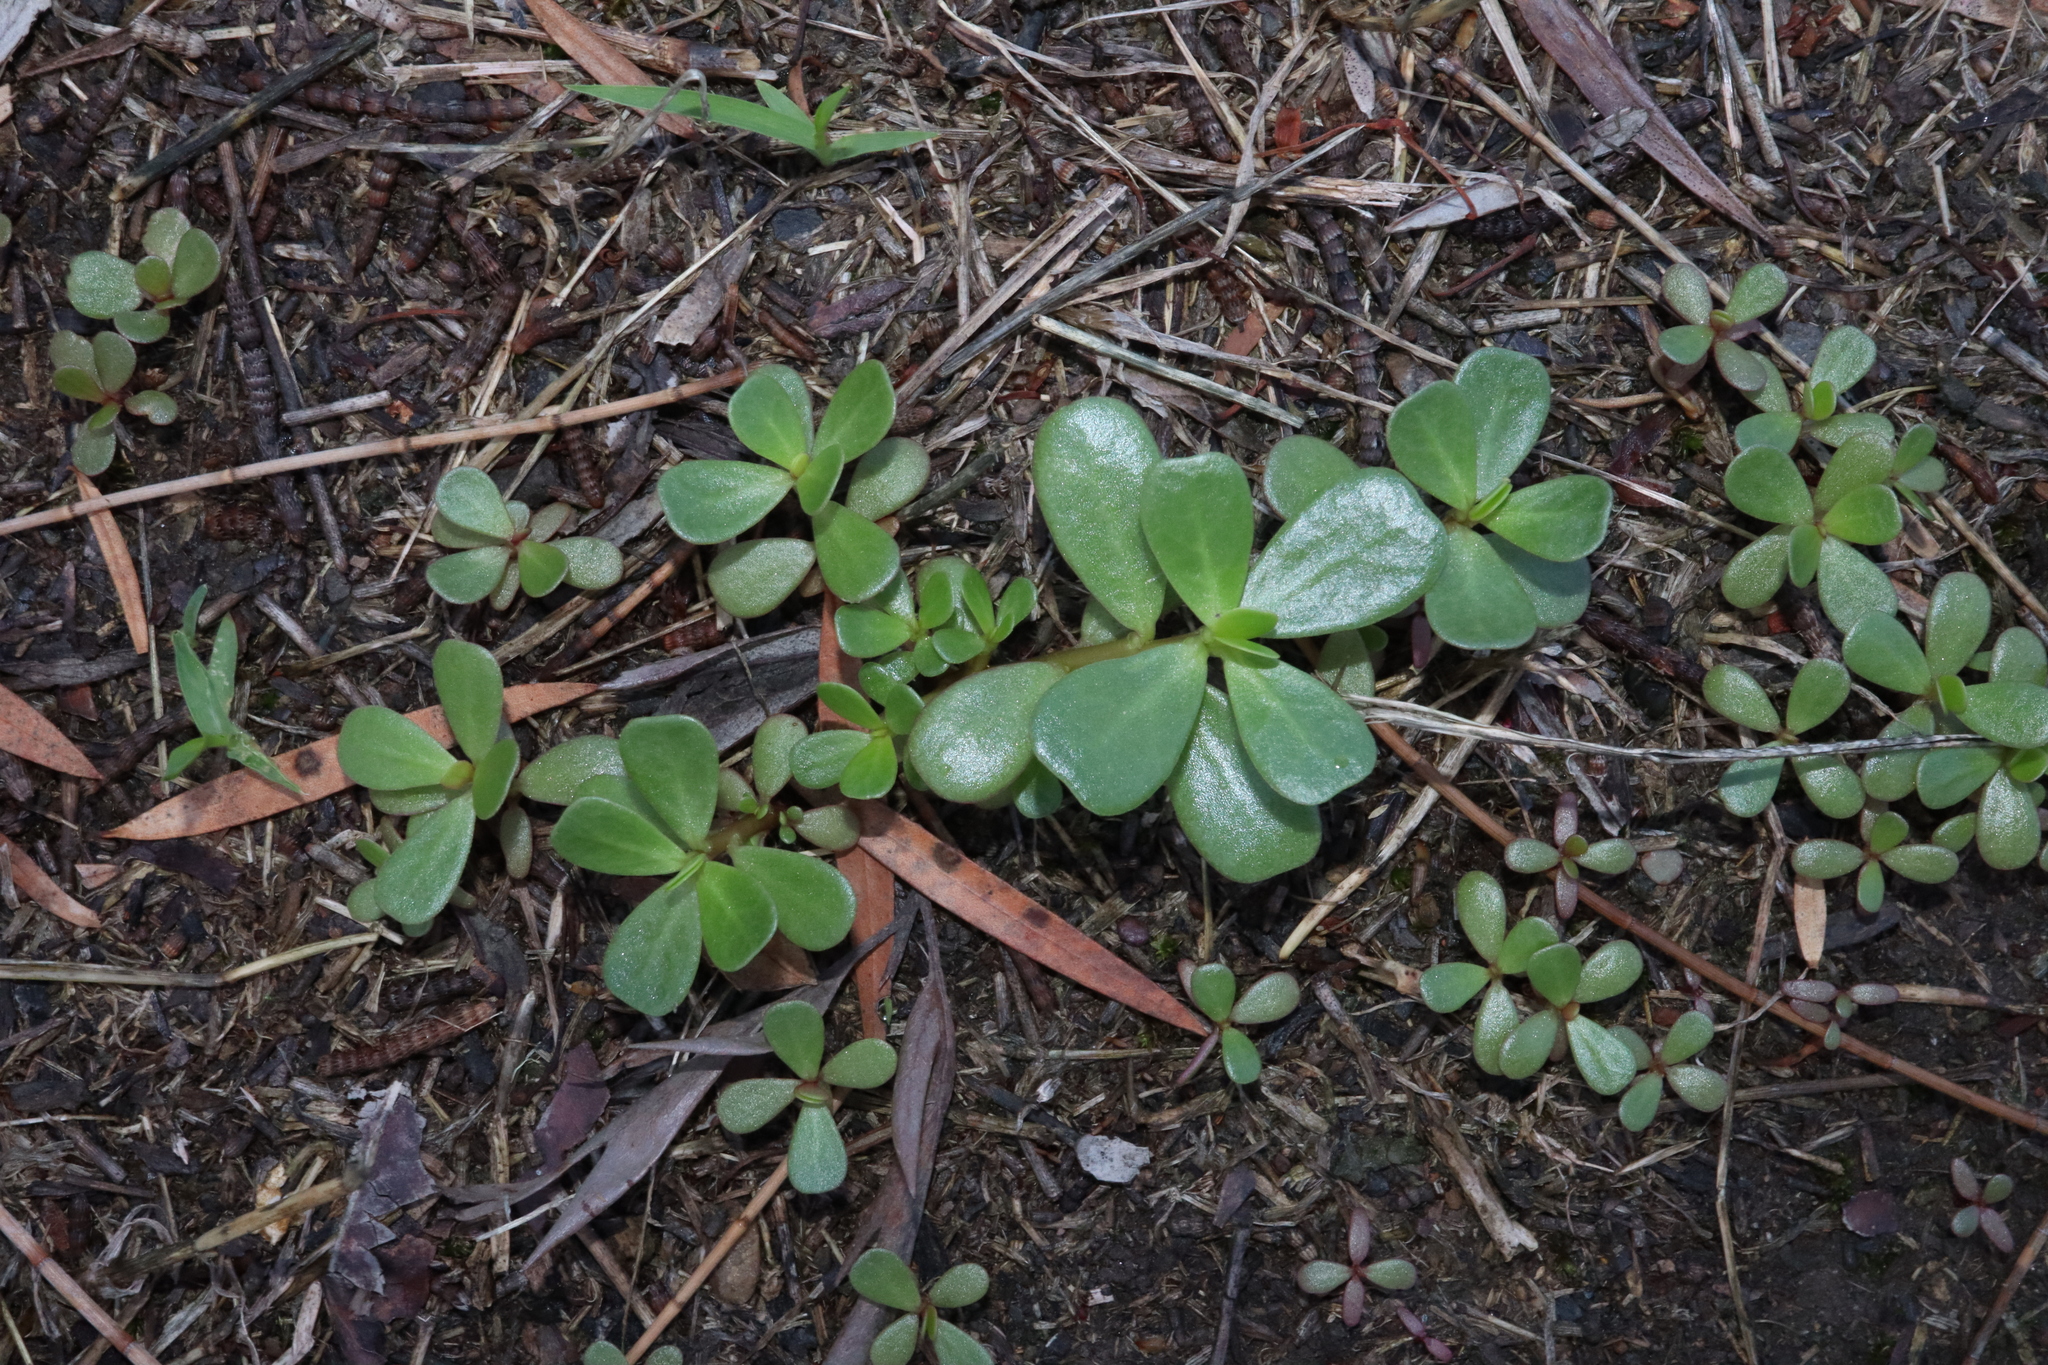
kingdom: Plantae
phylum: Tracheophyta
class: Magnoliopsida
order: Caryophyllales
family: Portulacaceae
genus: Portulaca
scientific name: Portulaca oleracea
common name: Common purslane
